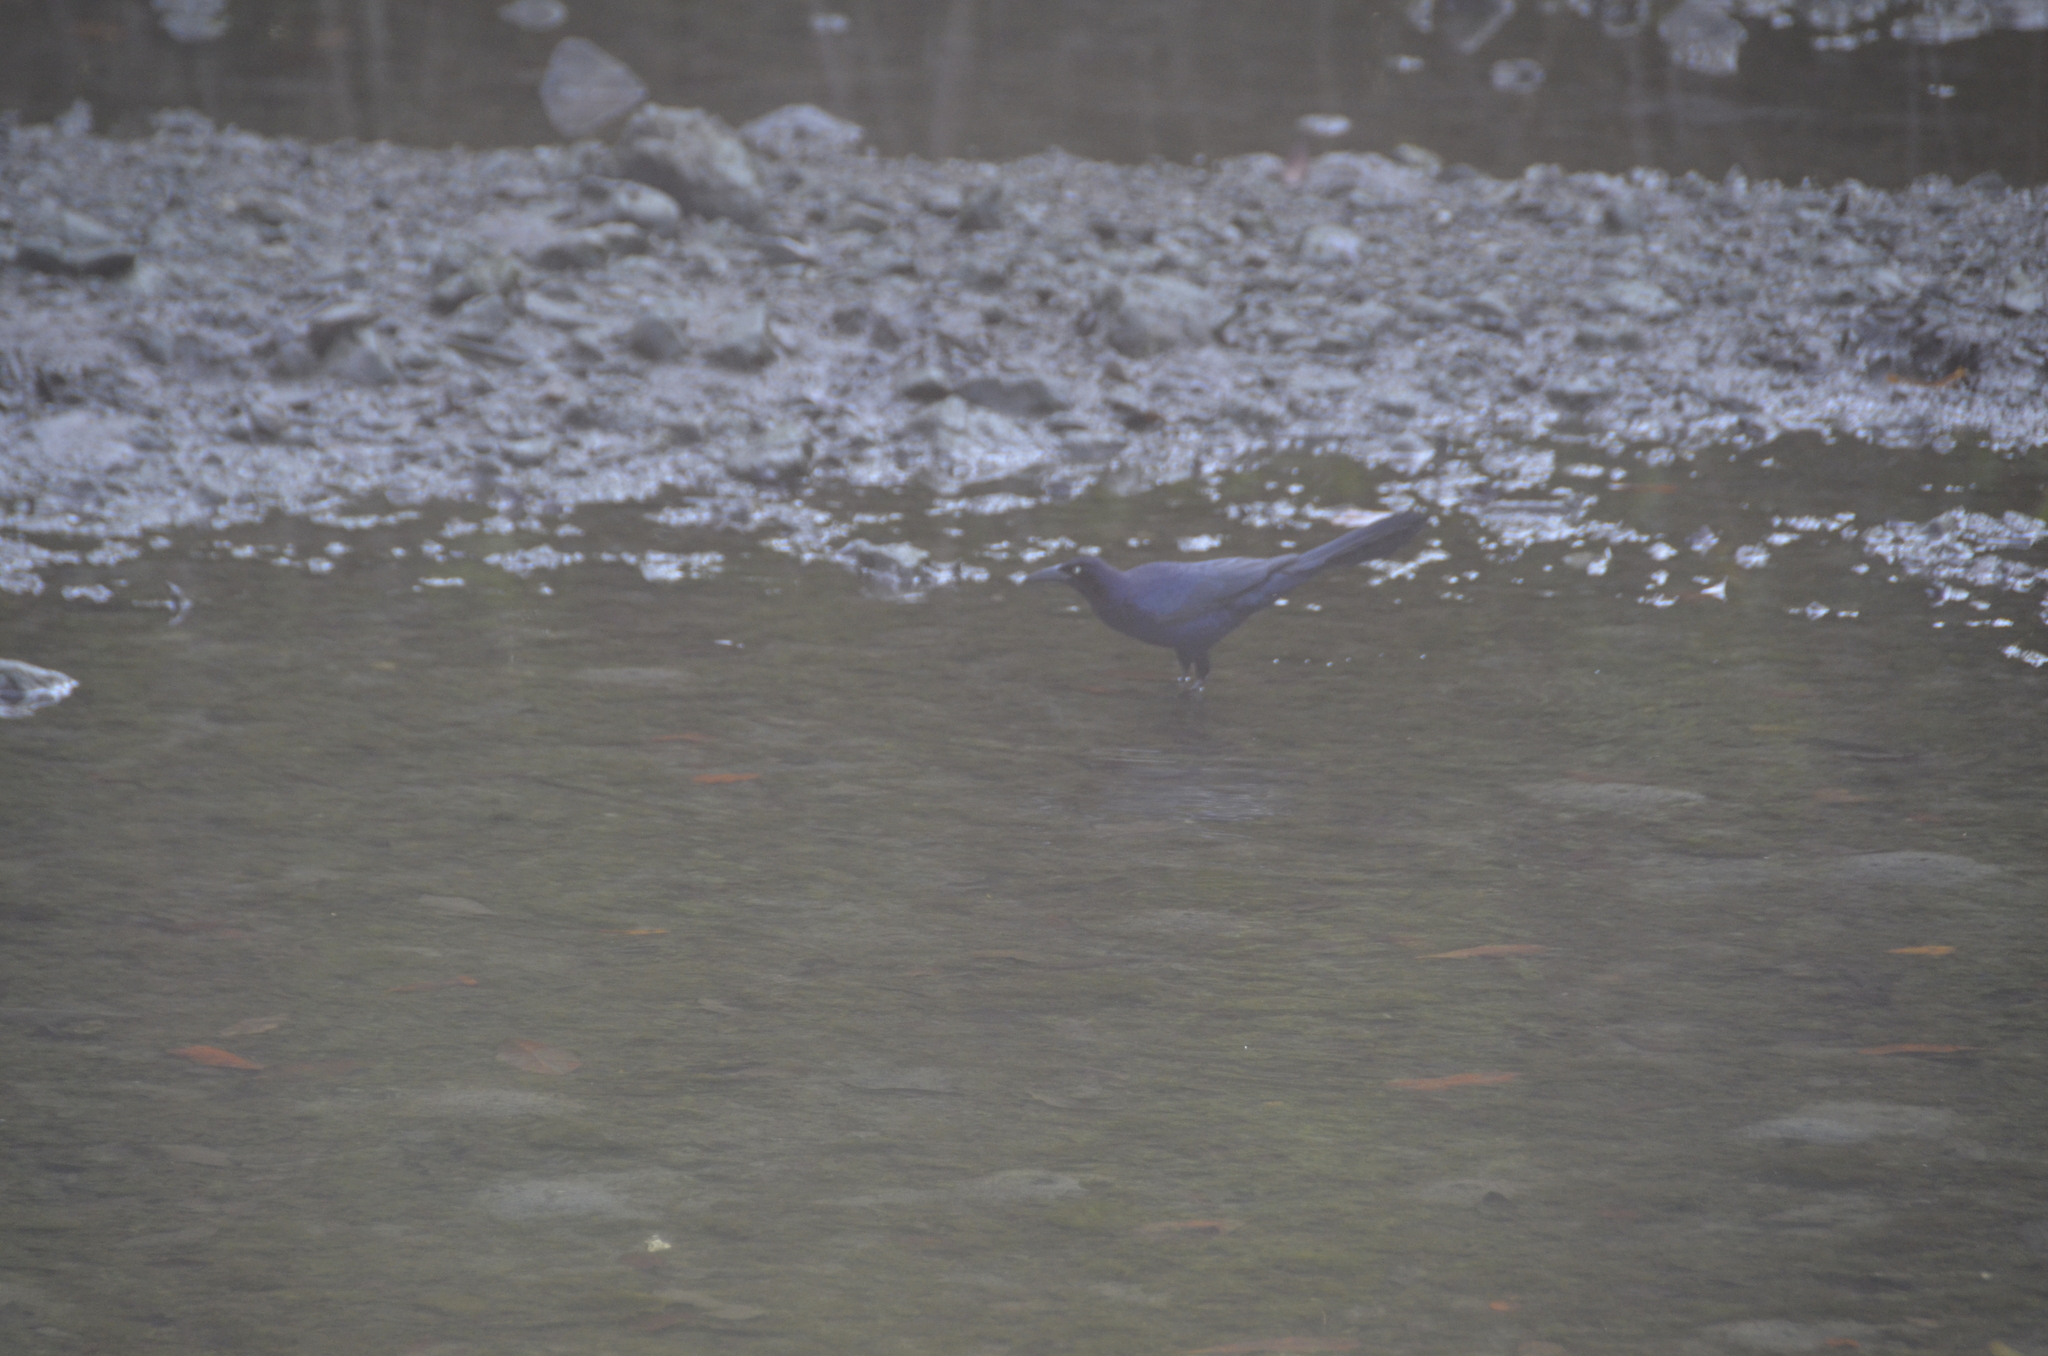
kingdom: Animalia
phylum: Chordata
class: Aves
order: Passeriformes
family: Icteridae
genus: Quiscalus
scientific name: Quiscalus mexicanus
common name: Great-tailed grackle
